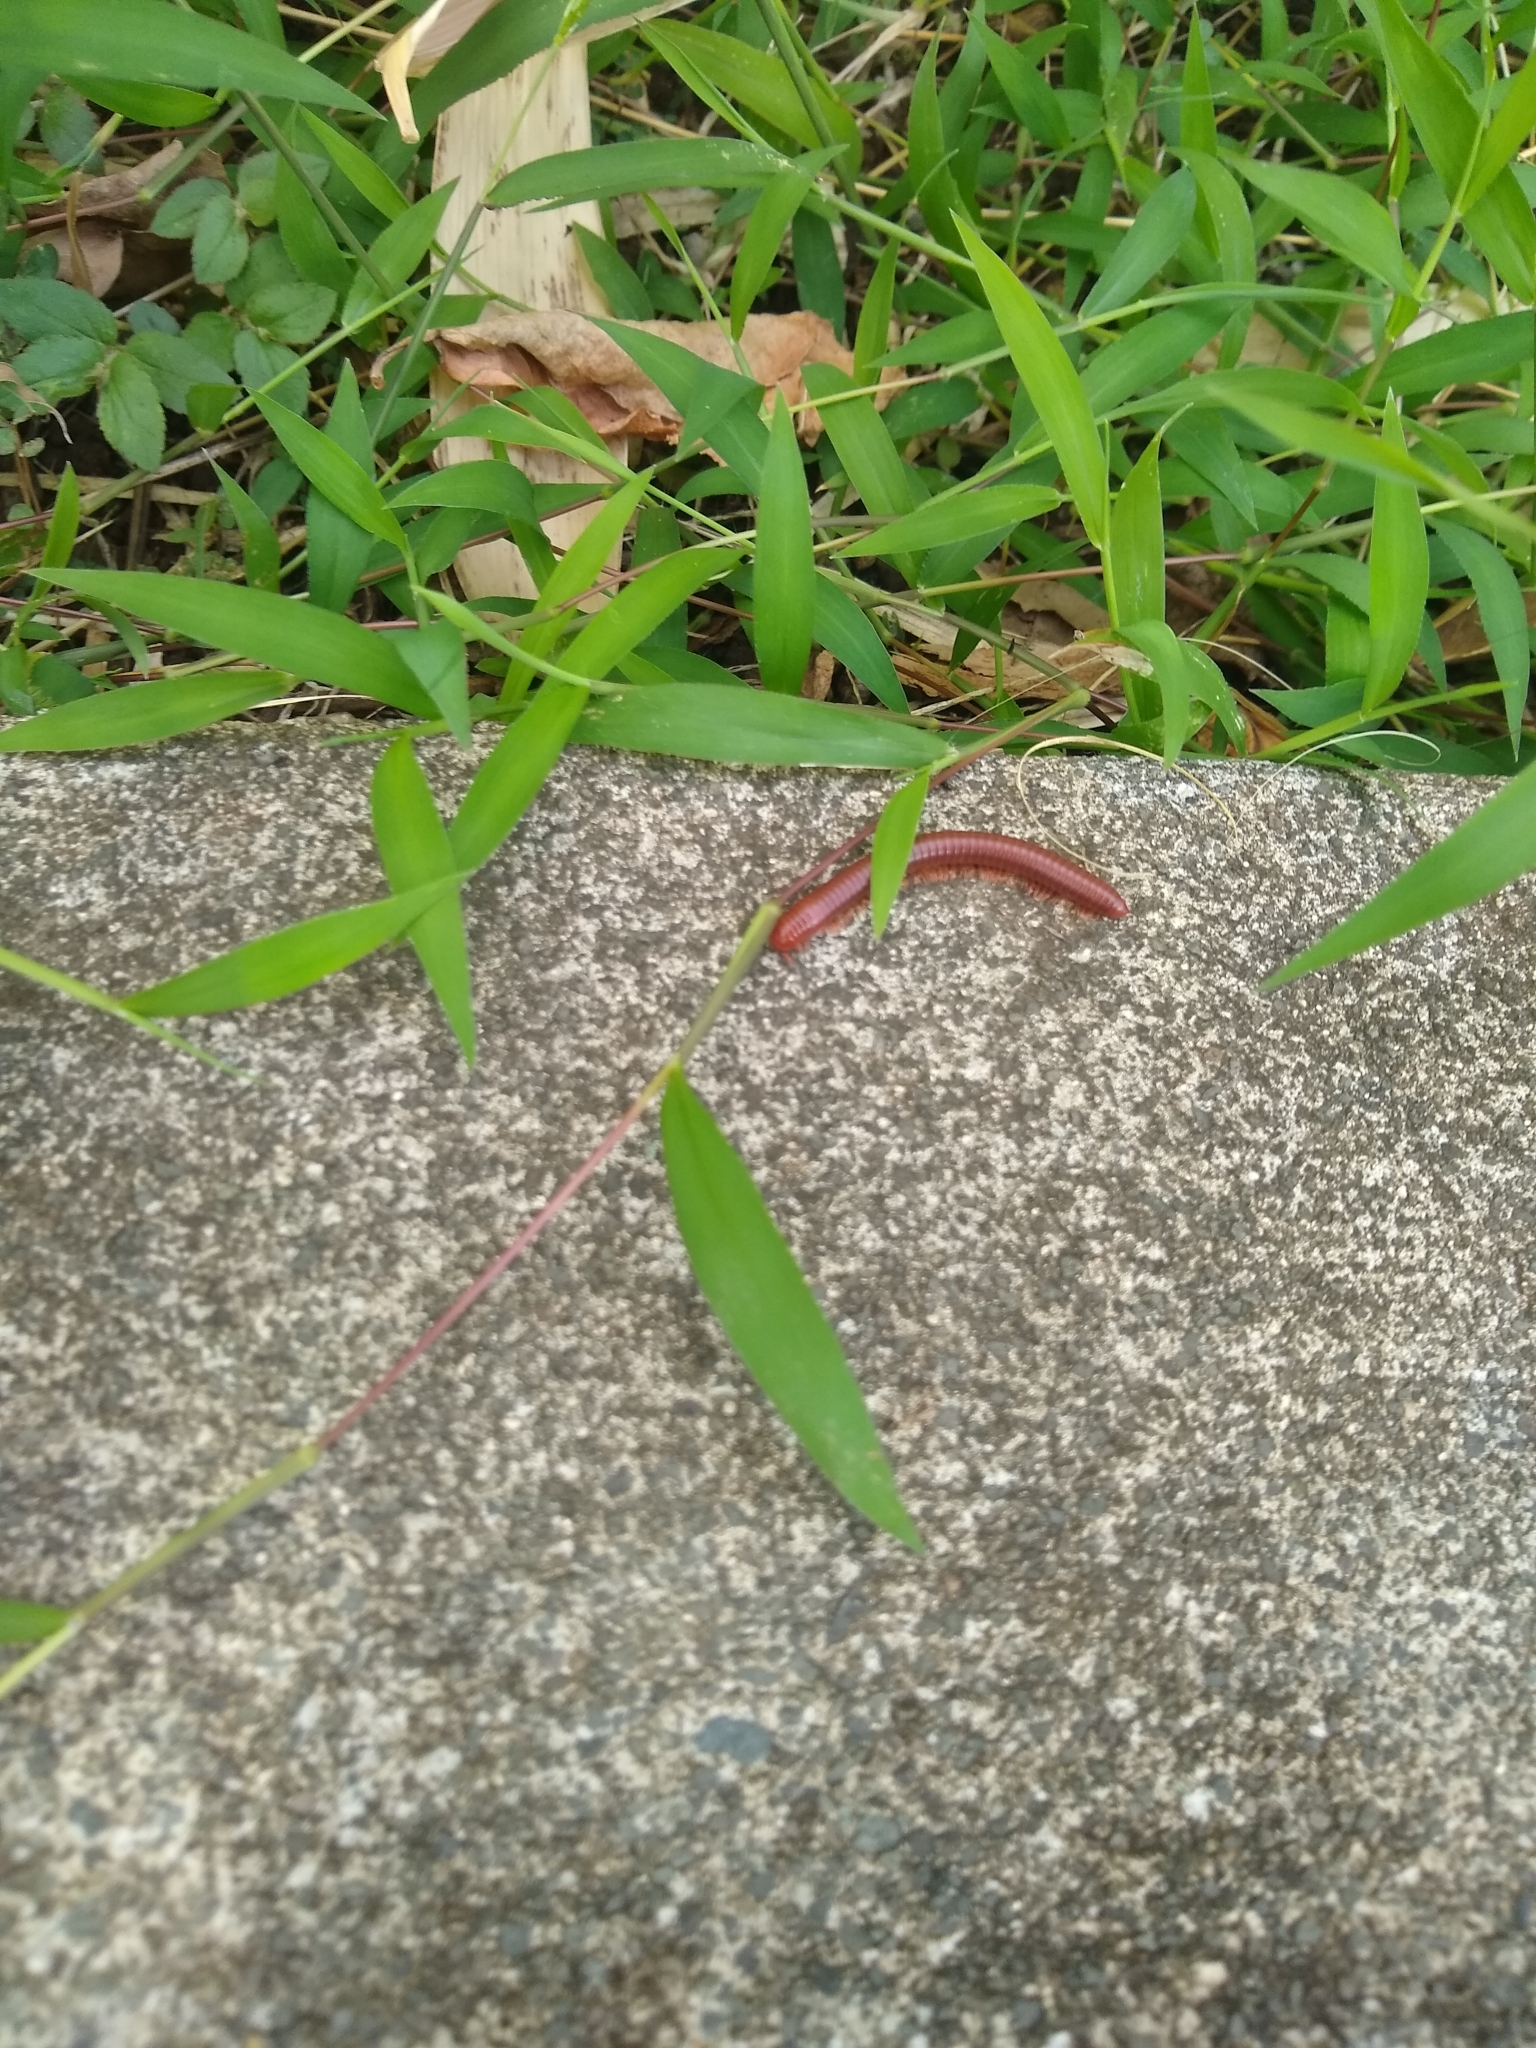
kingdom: Animalia
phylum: Arthropoda
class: Diplopoda
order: Spirobolida
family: Pachybolidae
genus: Trigoniulus
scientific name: Trigoniulus corallinus
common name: Millipede
